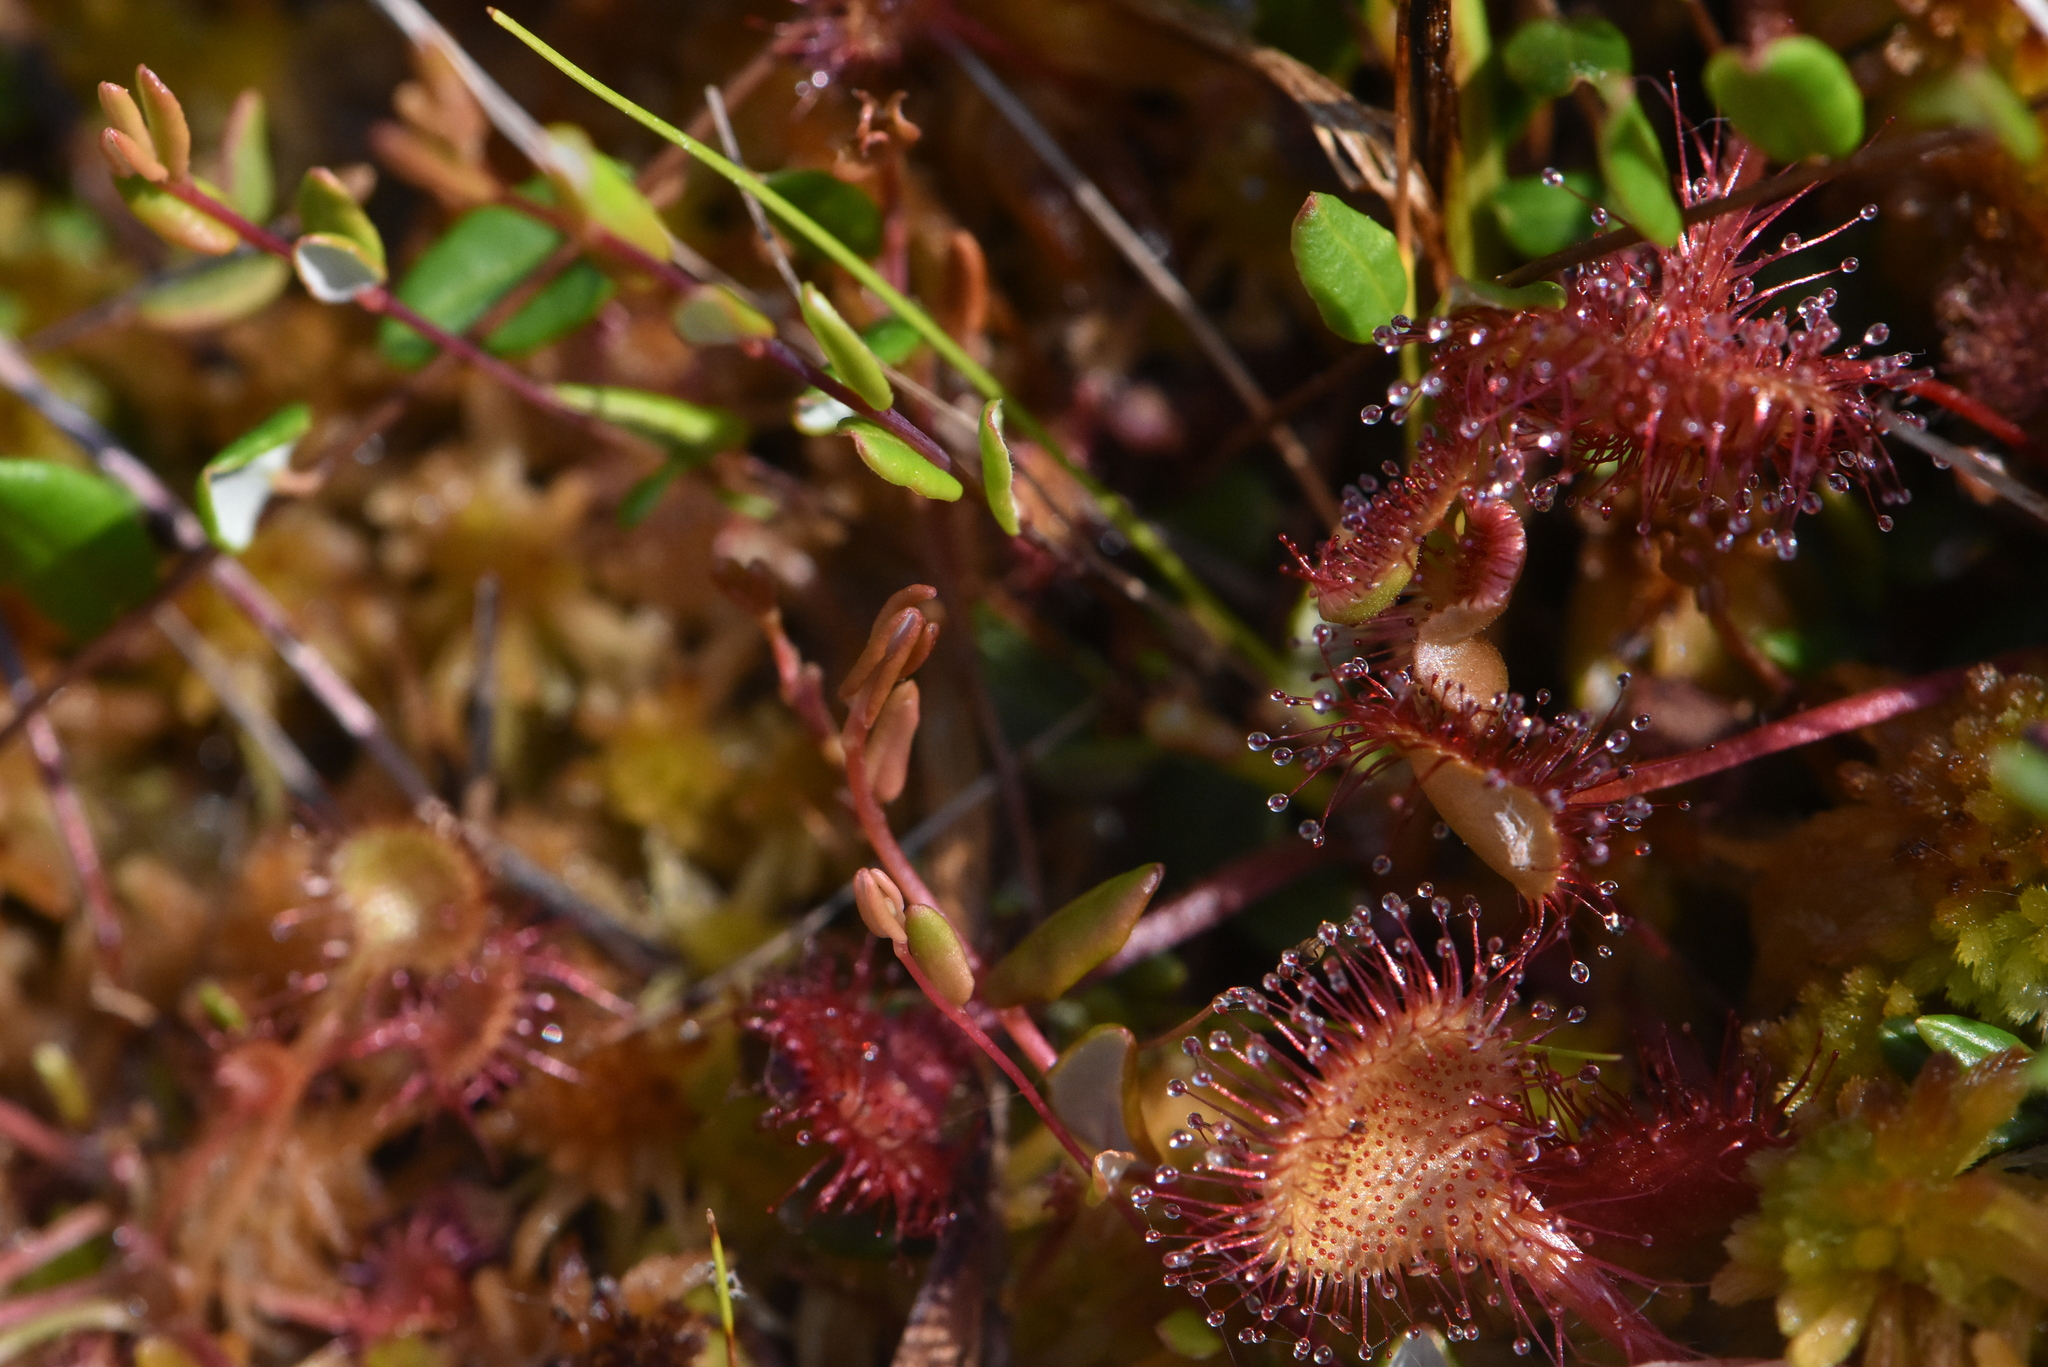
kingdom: Plantae
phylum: Tracheophyta
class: Magnoliopsida
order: Caryophyllales
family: Droseraceae
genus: Drosera
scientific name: Drosera rotundifolia
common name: Round-leaved sundew
